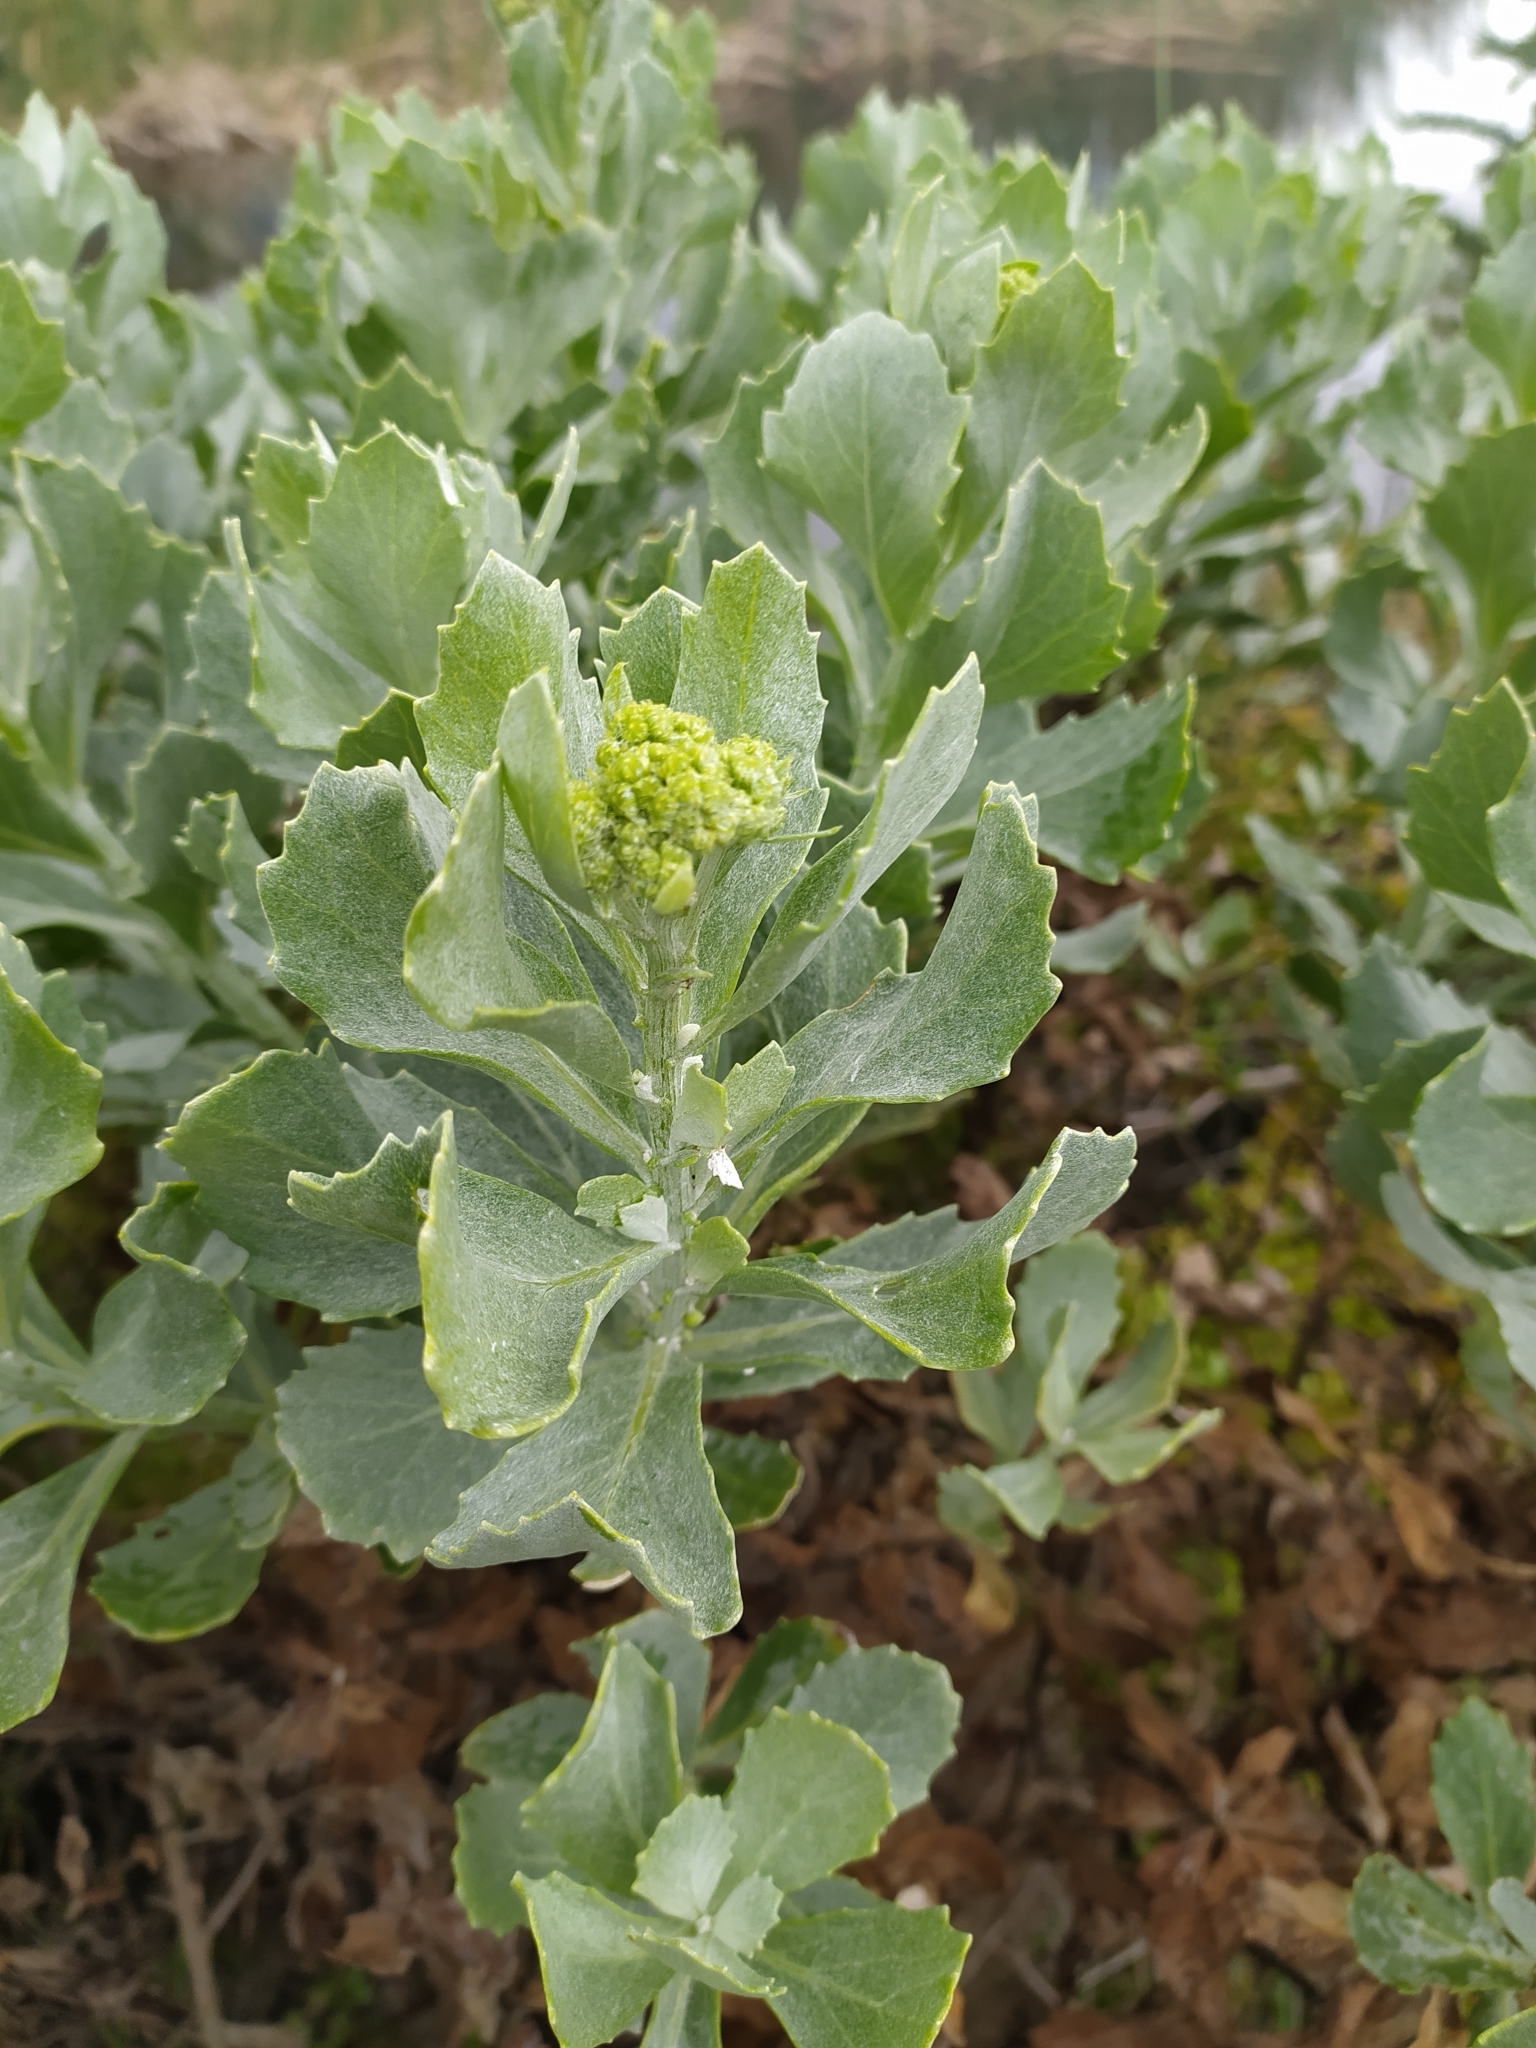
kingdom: Plantae
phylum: Tracheophyta
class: Magnoliopsida
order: Asterales
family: Asteraceae
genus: Senecio
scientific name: Senecio halimifolius
